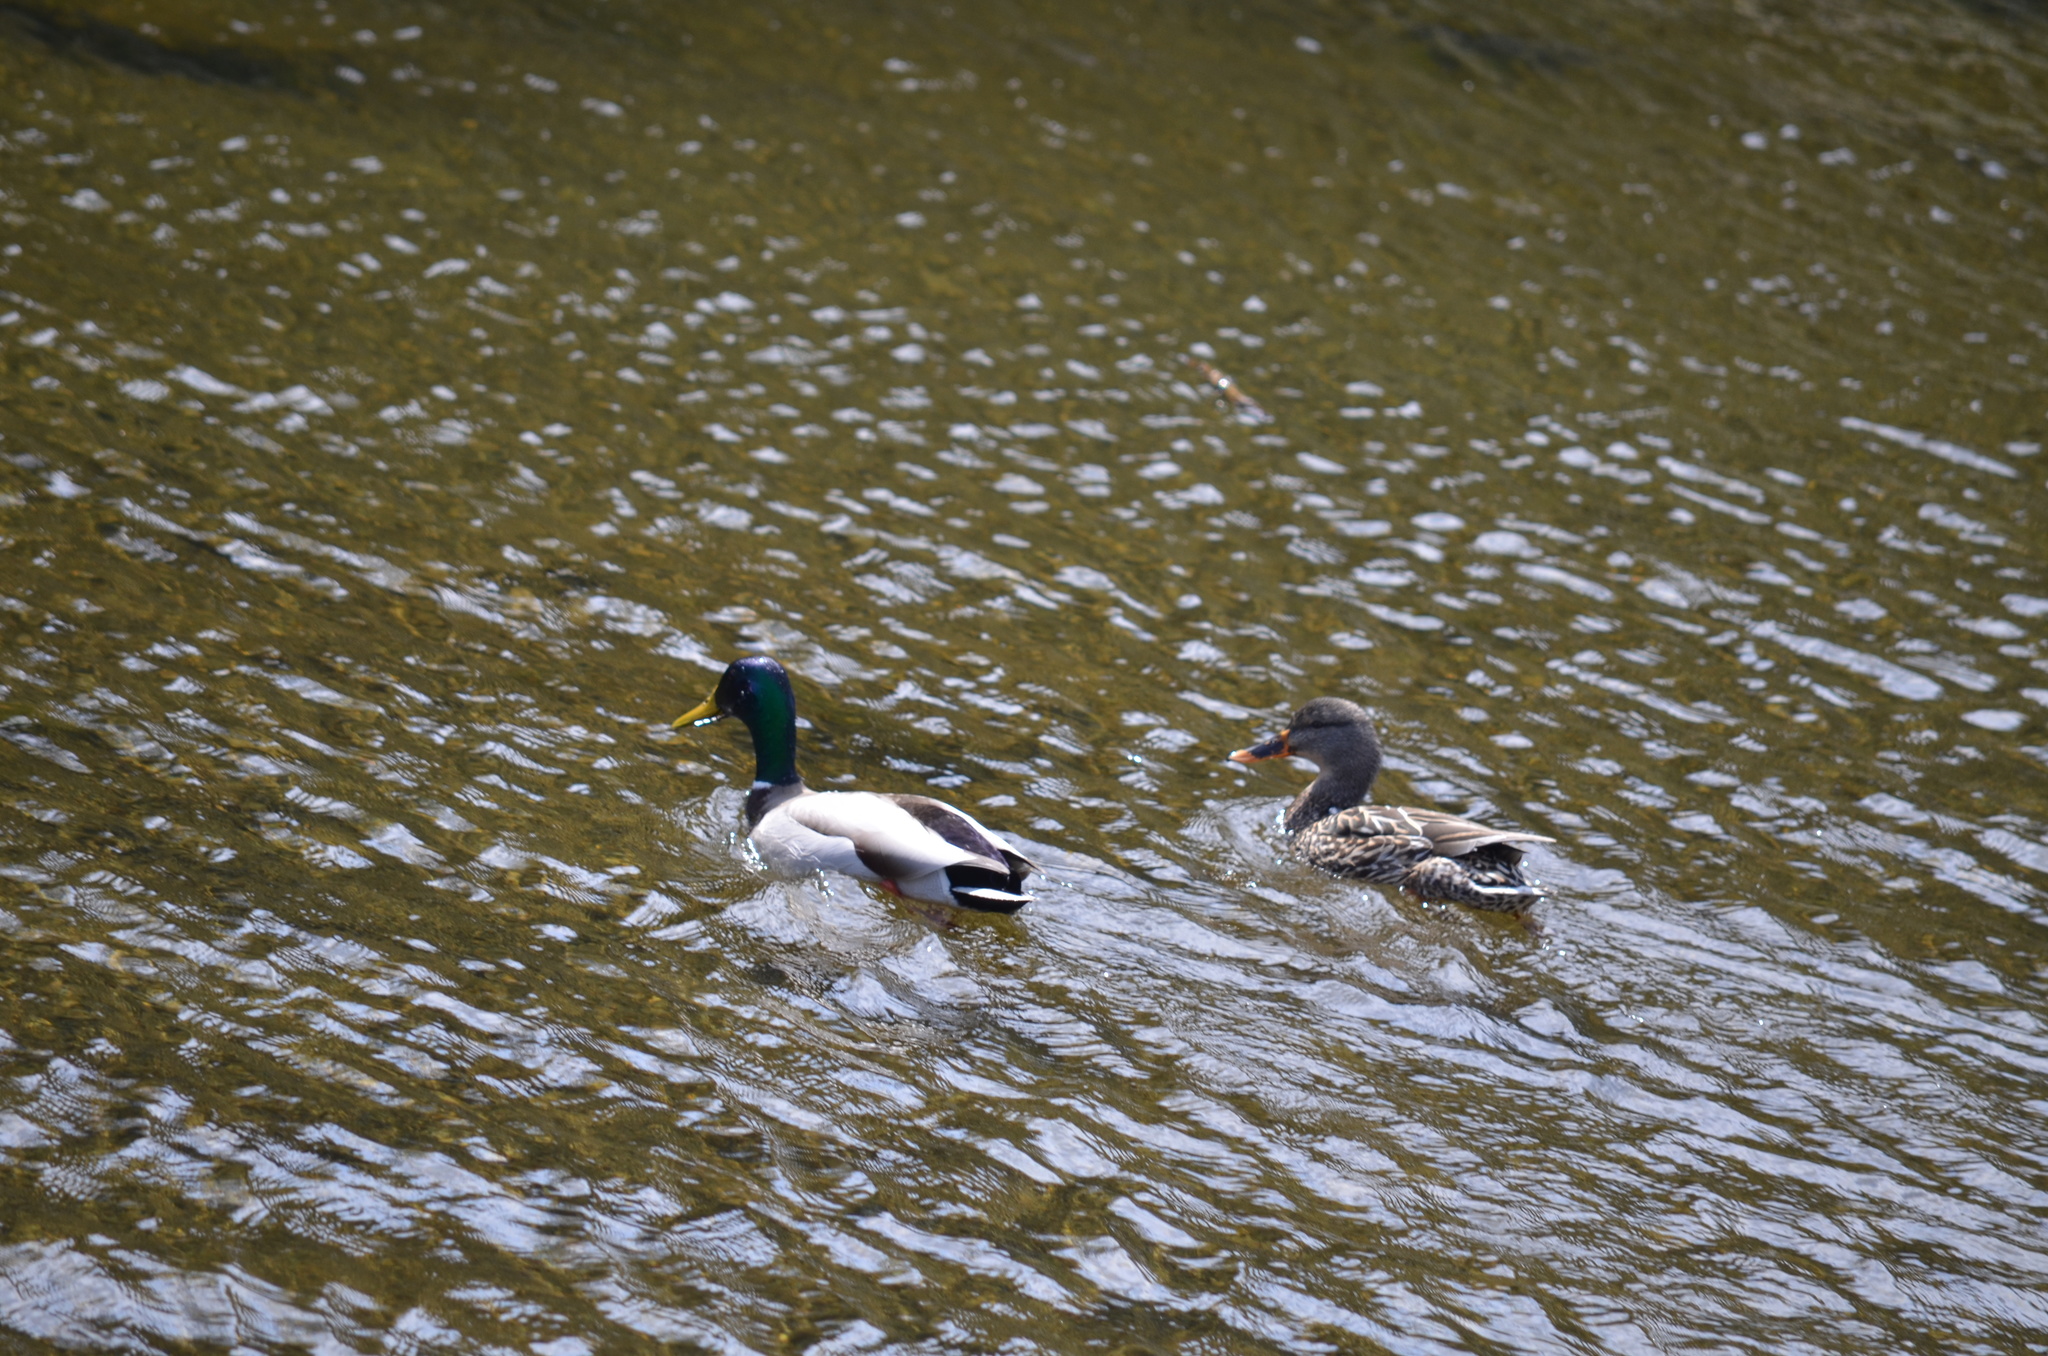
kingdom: Animalia
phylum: Chordata
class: Aves
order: Anseriformes
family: Anatidae
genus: Anas
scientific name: Anas platyrhynchos
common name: Mallard
